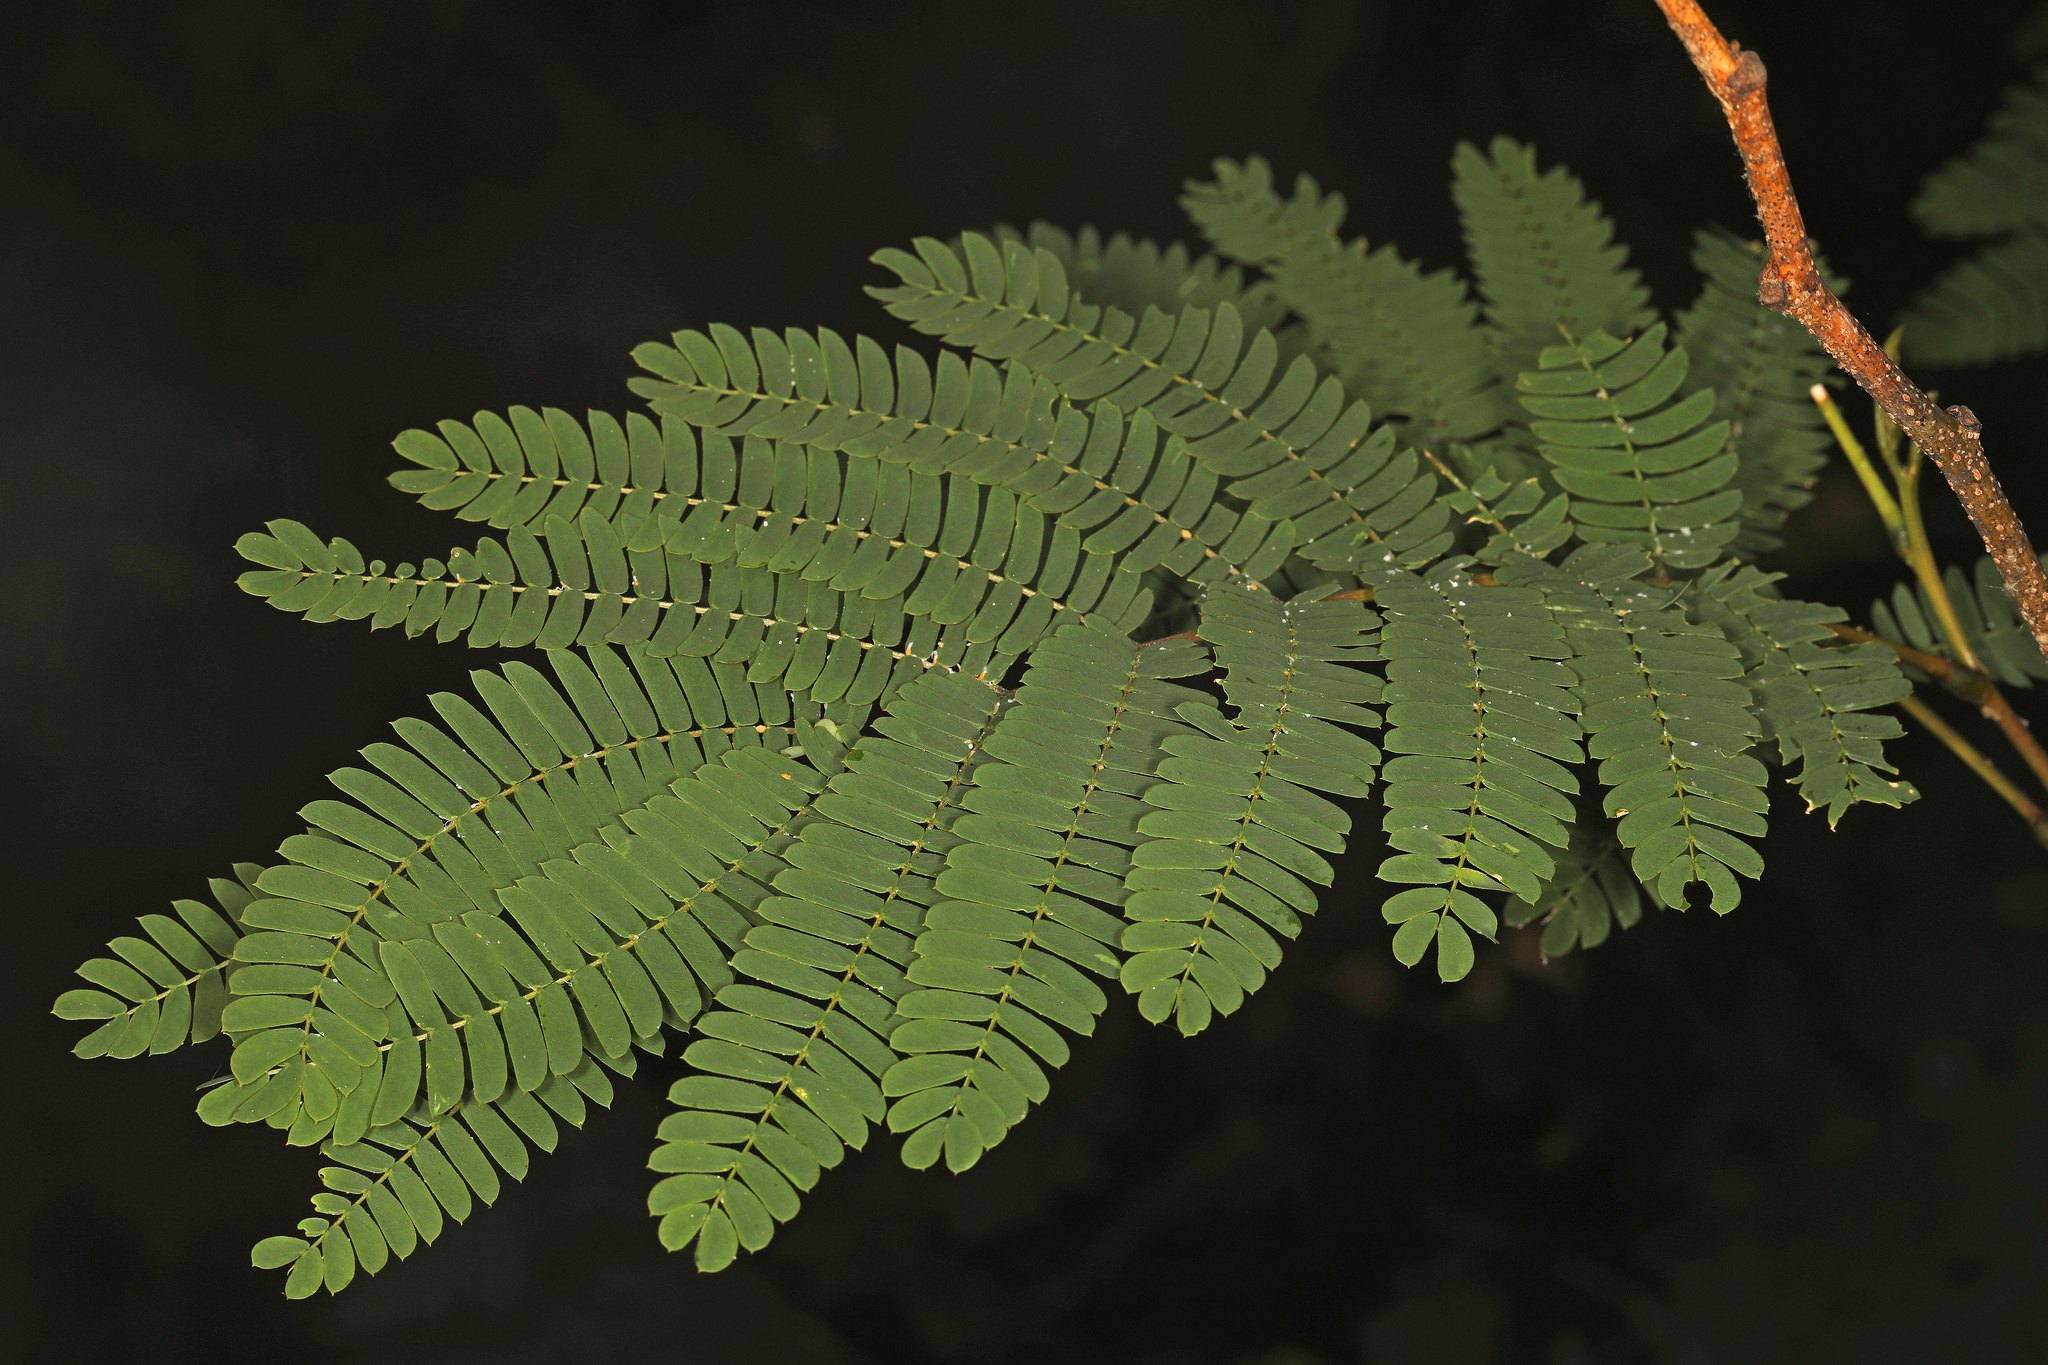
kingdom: Plantae
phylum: Tracheophyta
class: Magnoliopsida
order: Fabales
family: Fabaceae
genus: Albizia
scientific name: Albizia julibrissin
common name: Silktree
